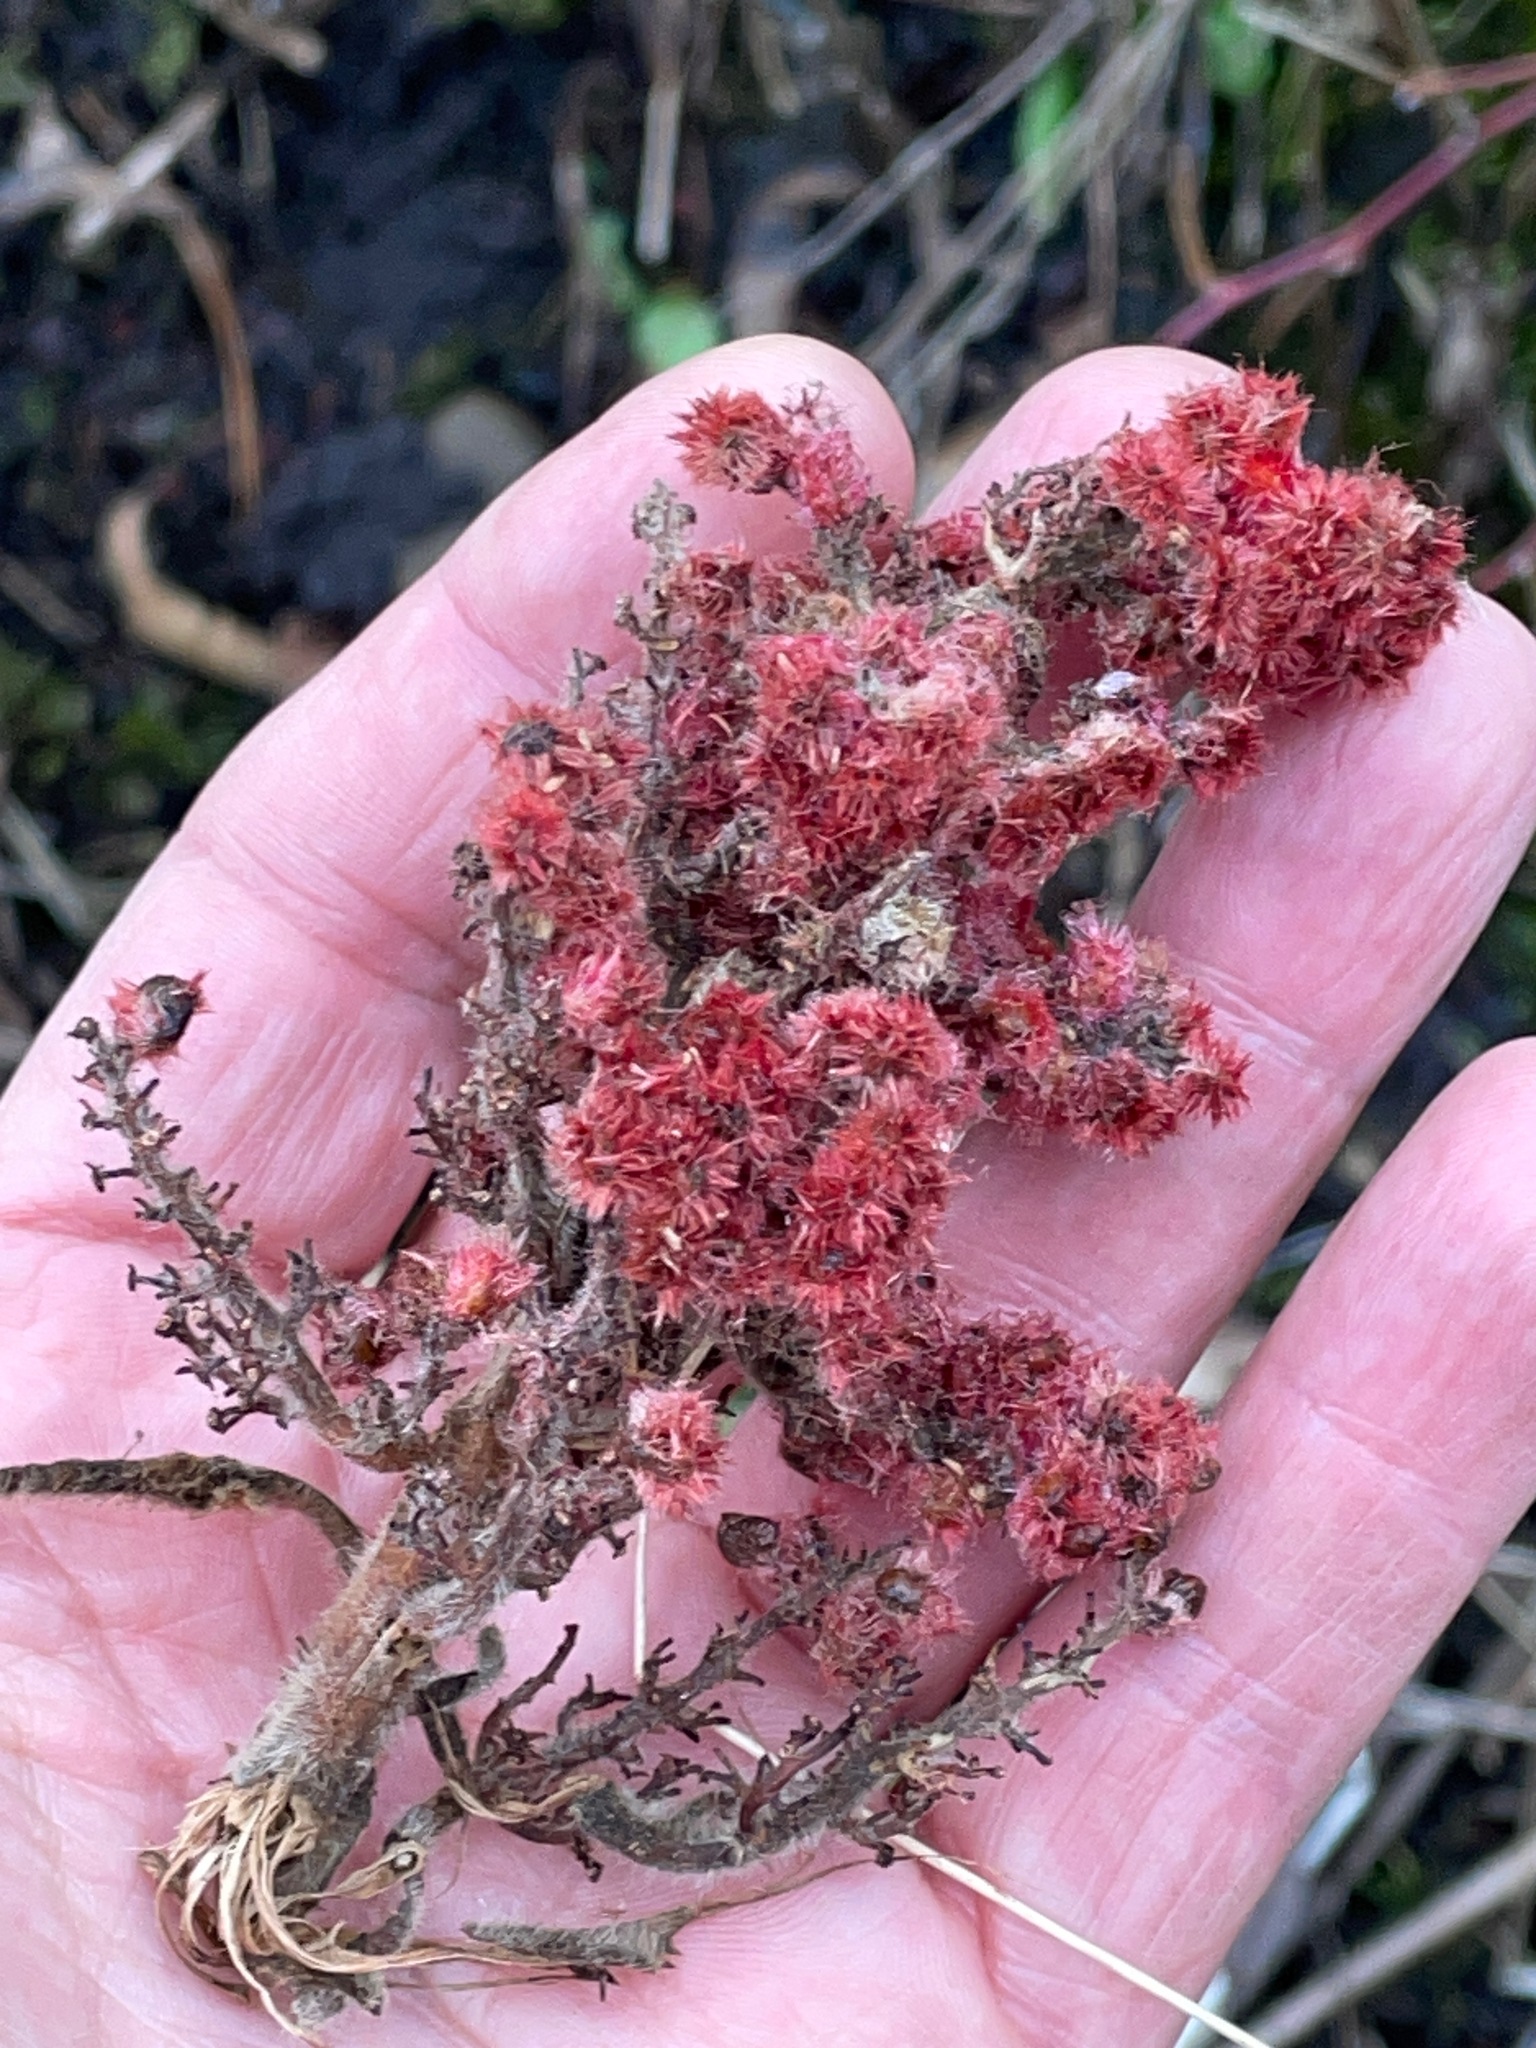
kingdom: Plantae
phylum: Tracheophyta
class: Magnoliopsida
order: Sapindales
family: Anacardiaceae
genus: Rhus
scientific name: Rhus typhina
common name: Staghorn sumac
